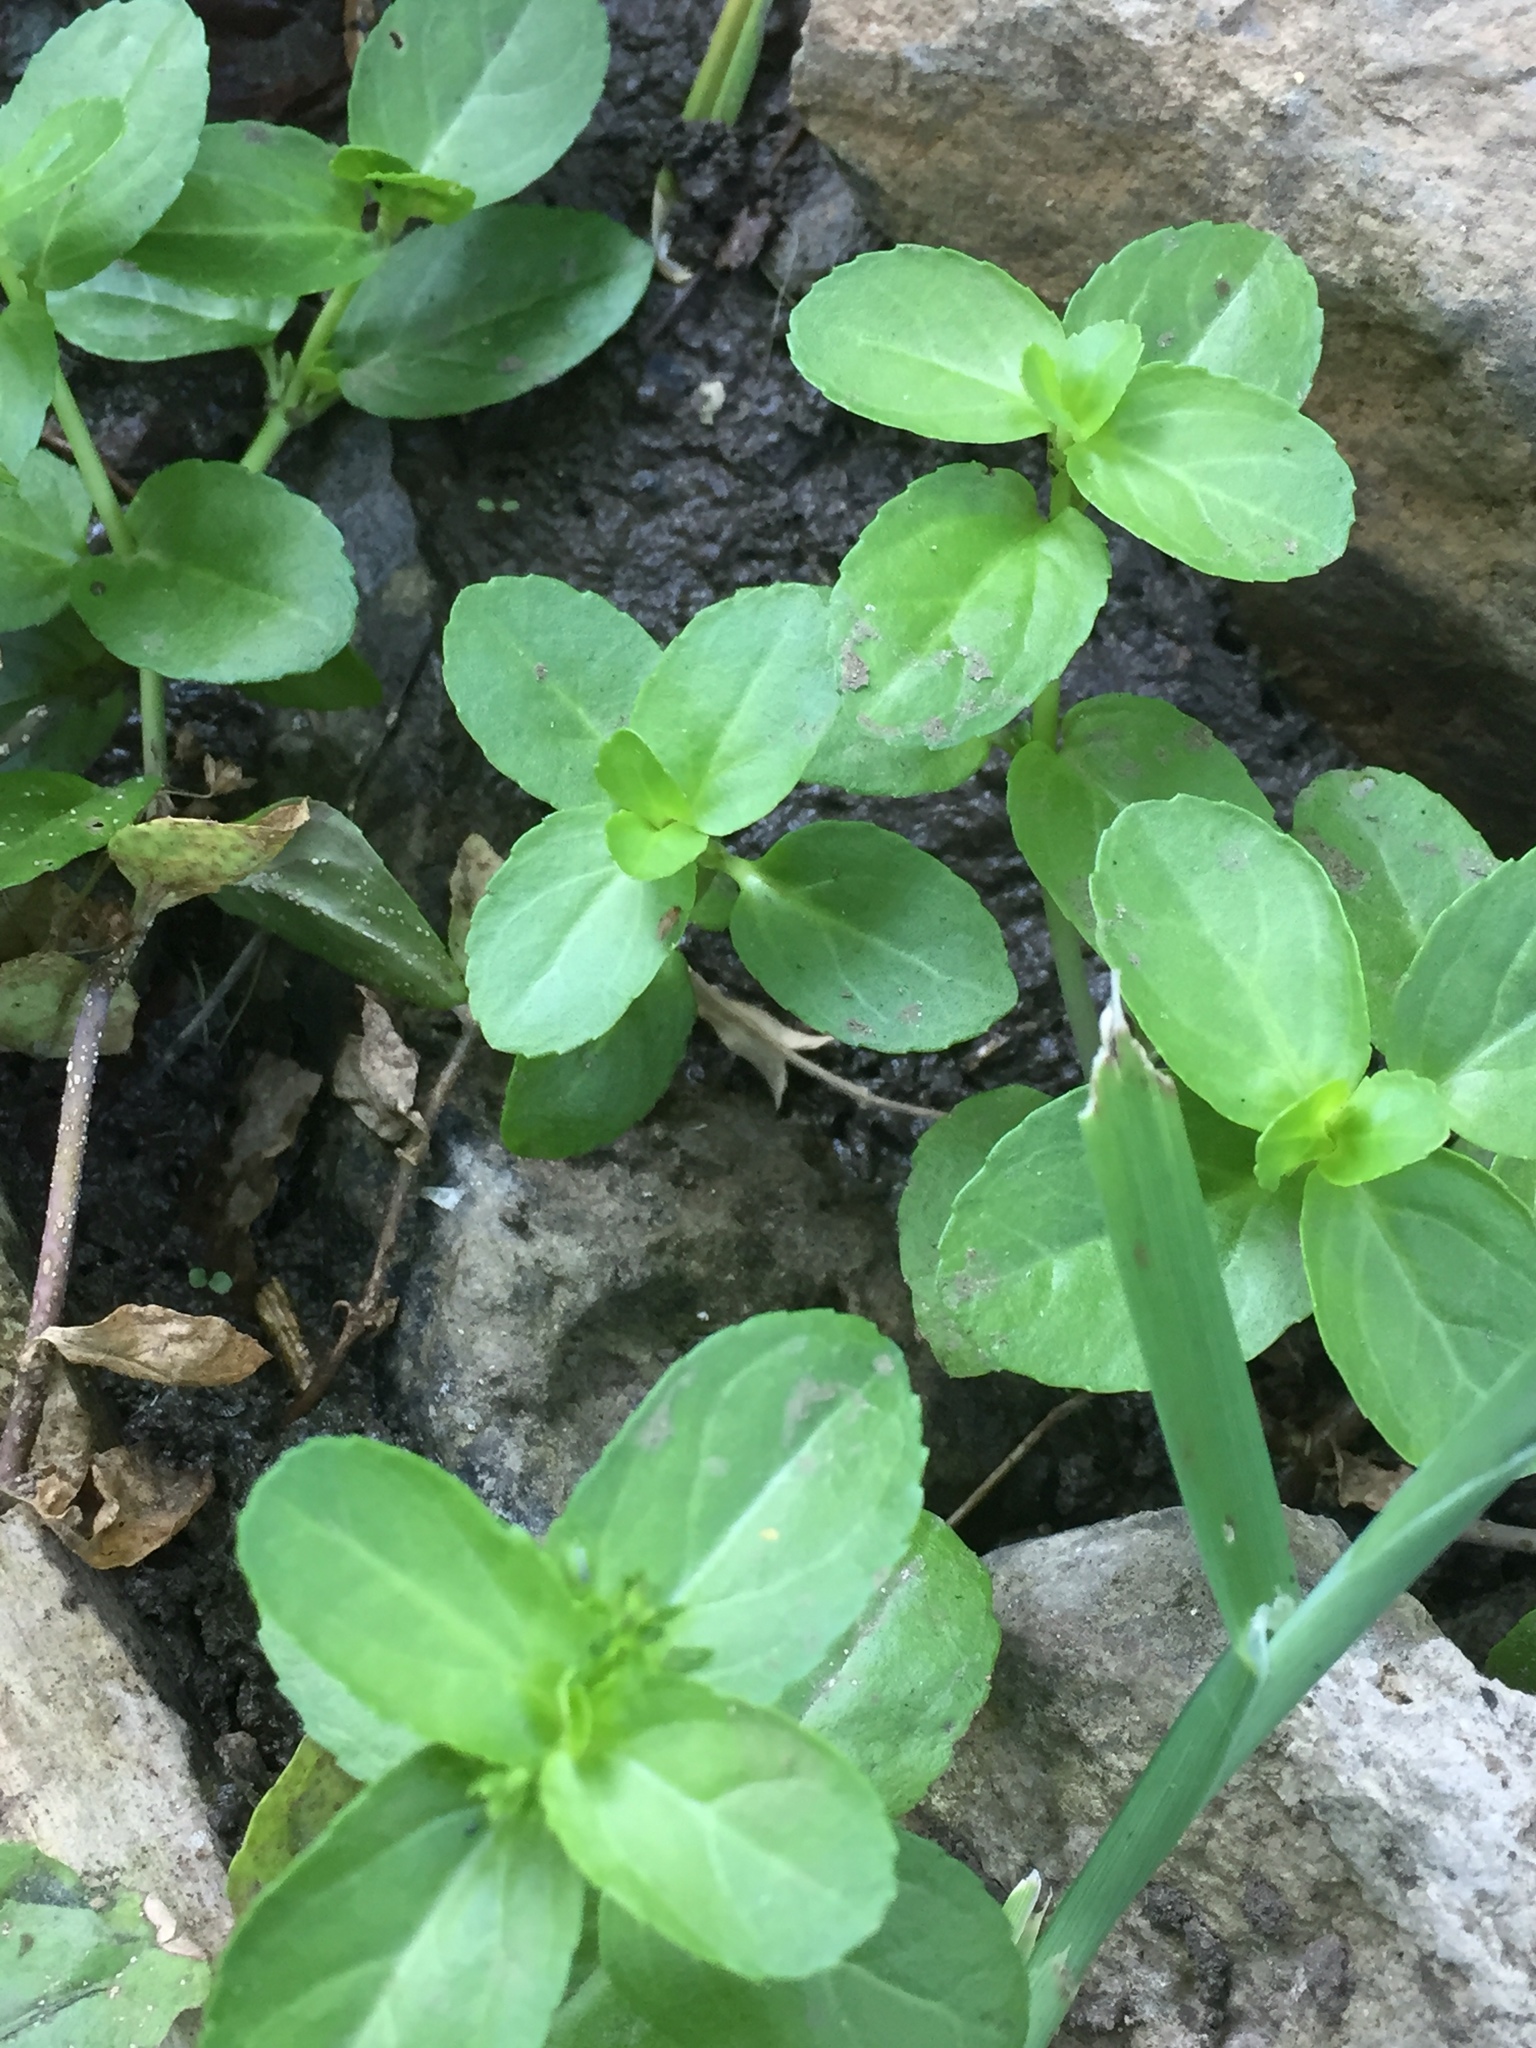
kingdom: Plantae
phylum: Tracheophyta
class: Magnoliopsida
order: Lamiales
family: Plantaginaceae
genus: Veronica
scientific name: Veronica beccabunga
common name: Brooklime
